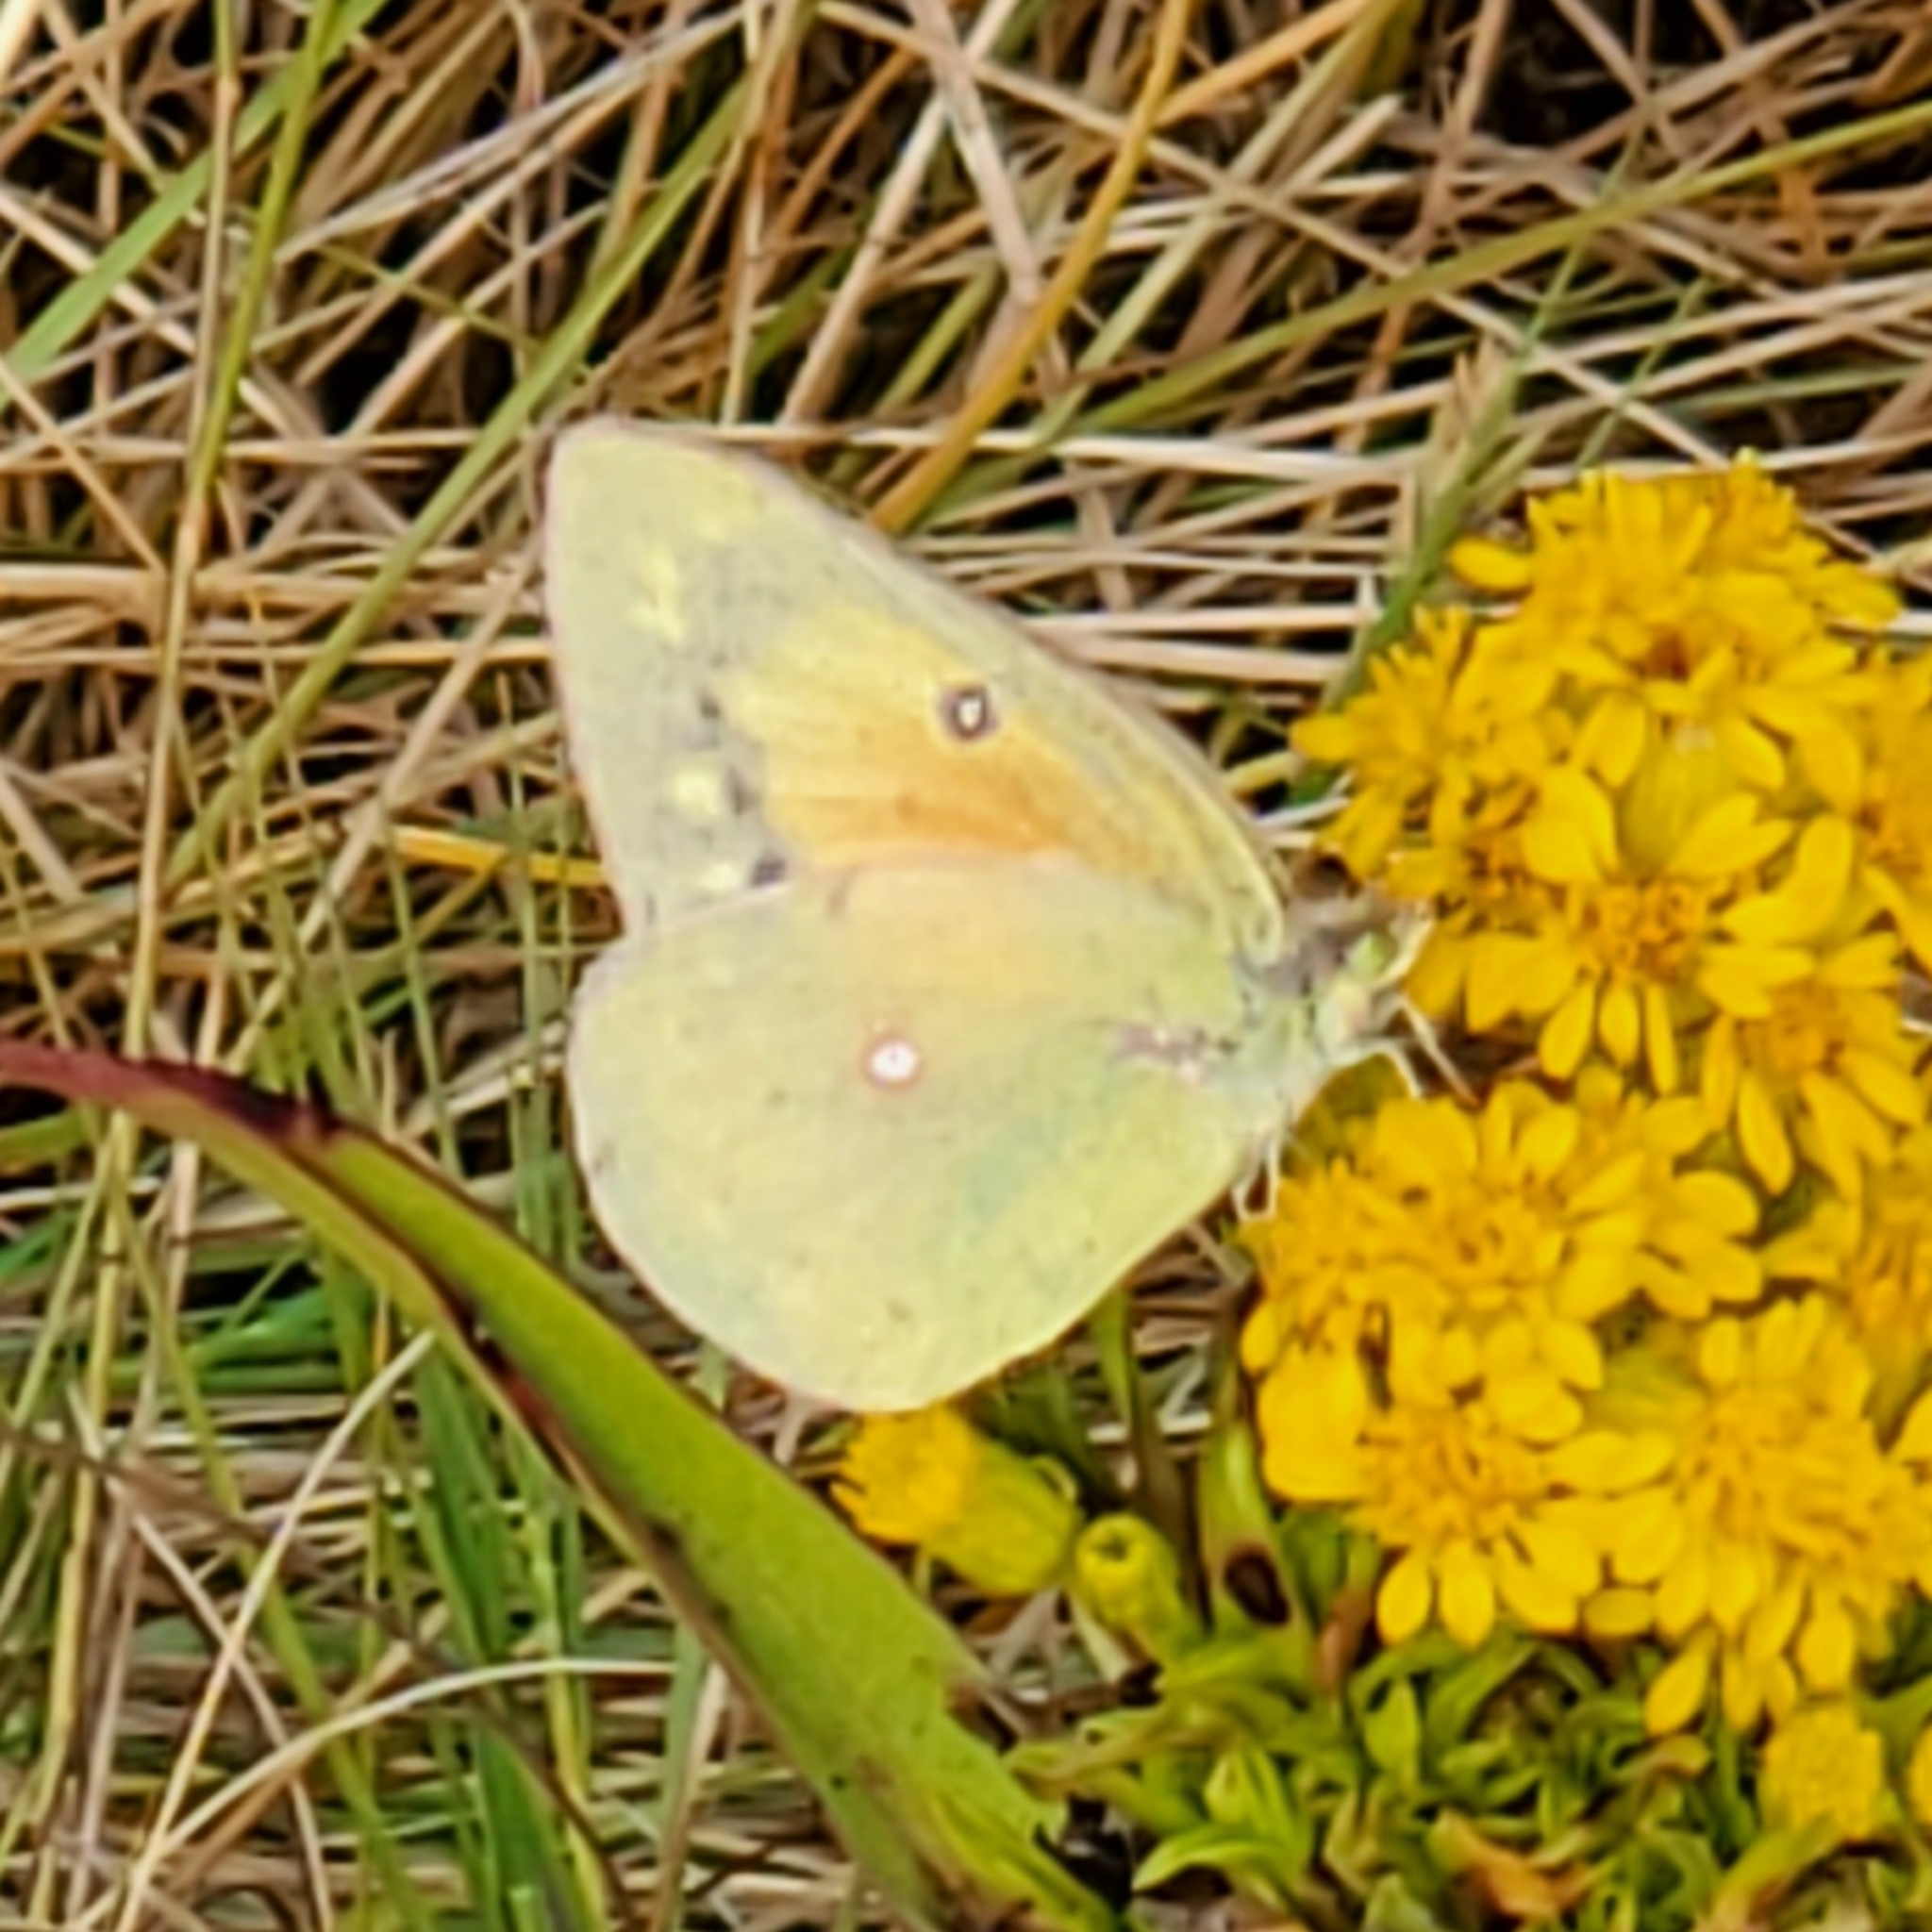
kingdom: Animalia
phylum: Arthropoda
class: Insecta
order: Lepidoptera
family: Pieridae
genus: Colias
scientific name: Colias eurytheme
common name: Alfalfa butterfly
